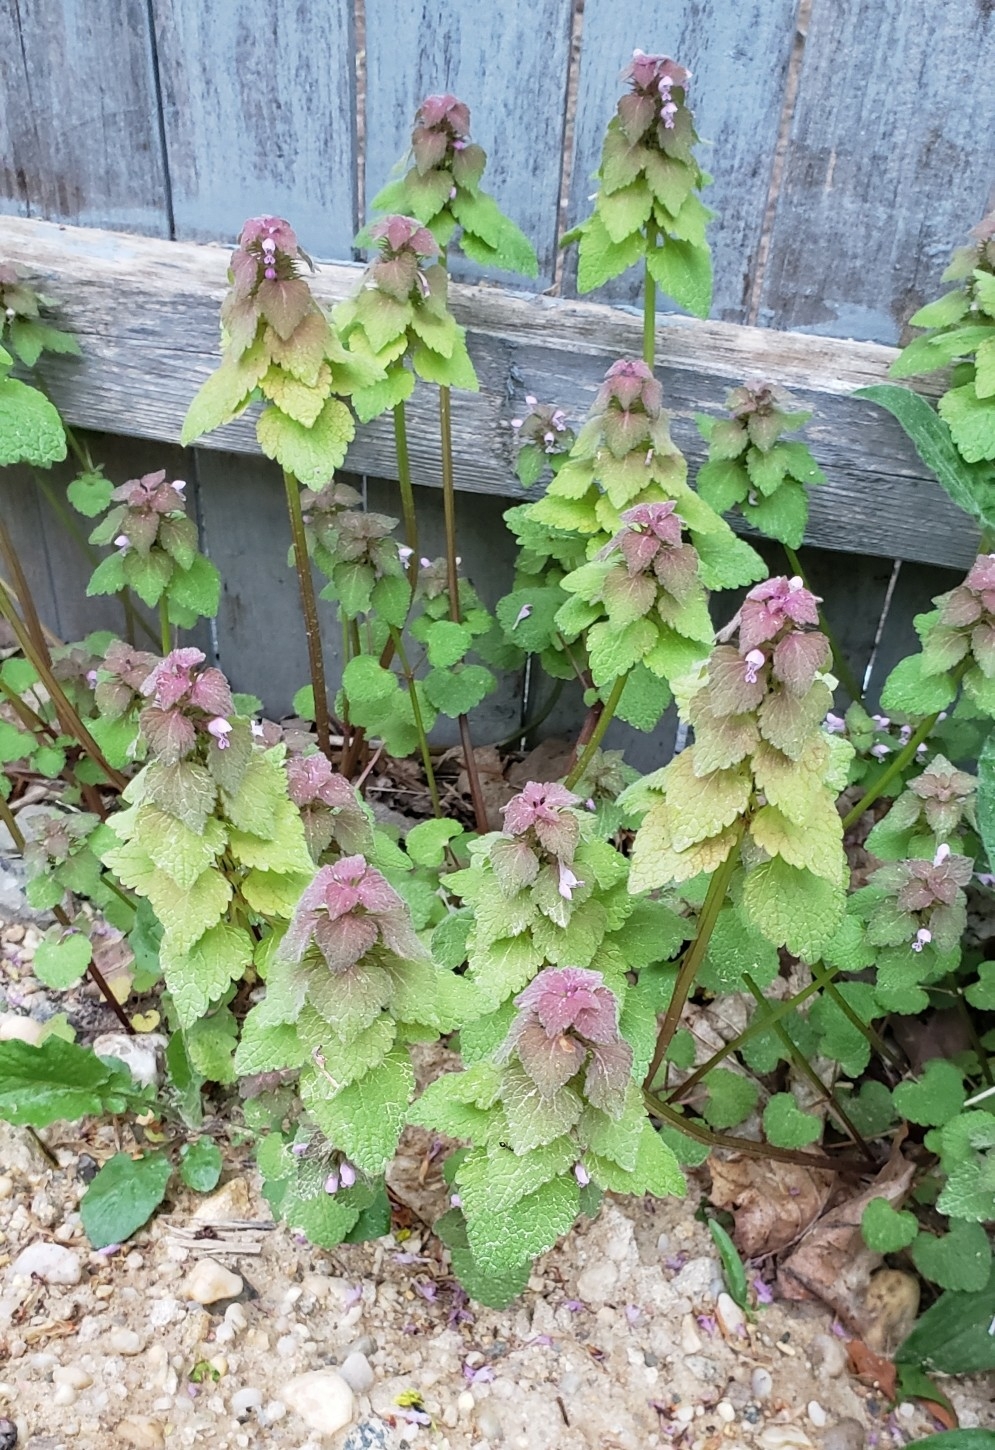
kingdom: Plantae
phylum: Tracheophyta
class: Magnoliopsida
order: Lamiales
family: Lamiaceae
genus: Lamium
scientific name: Lamium purpureum
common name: Red dead-nettle
